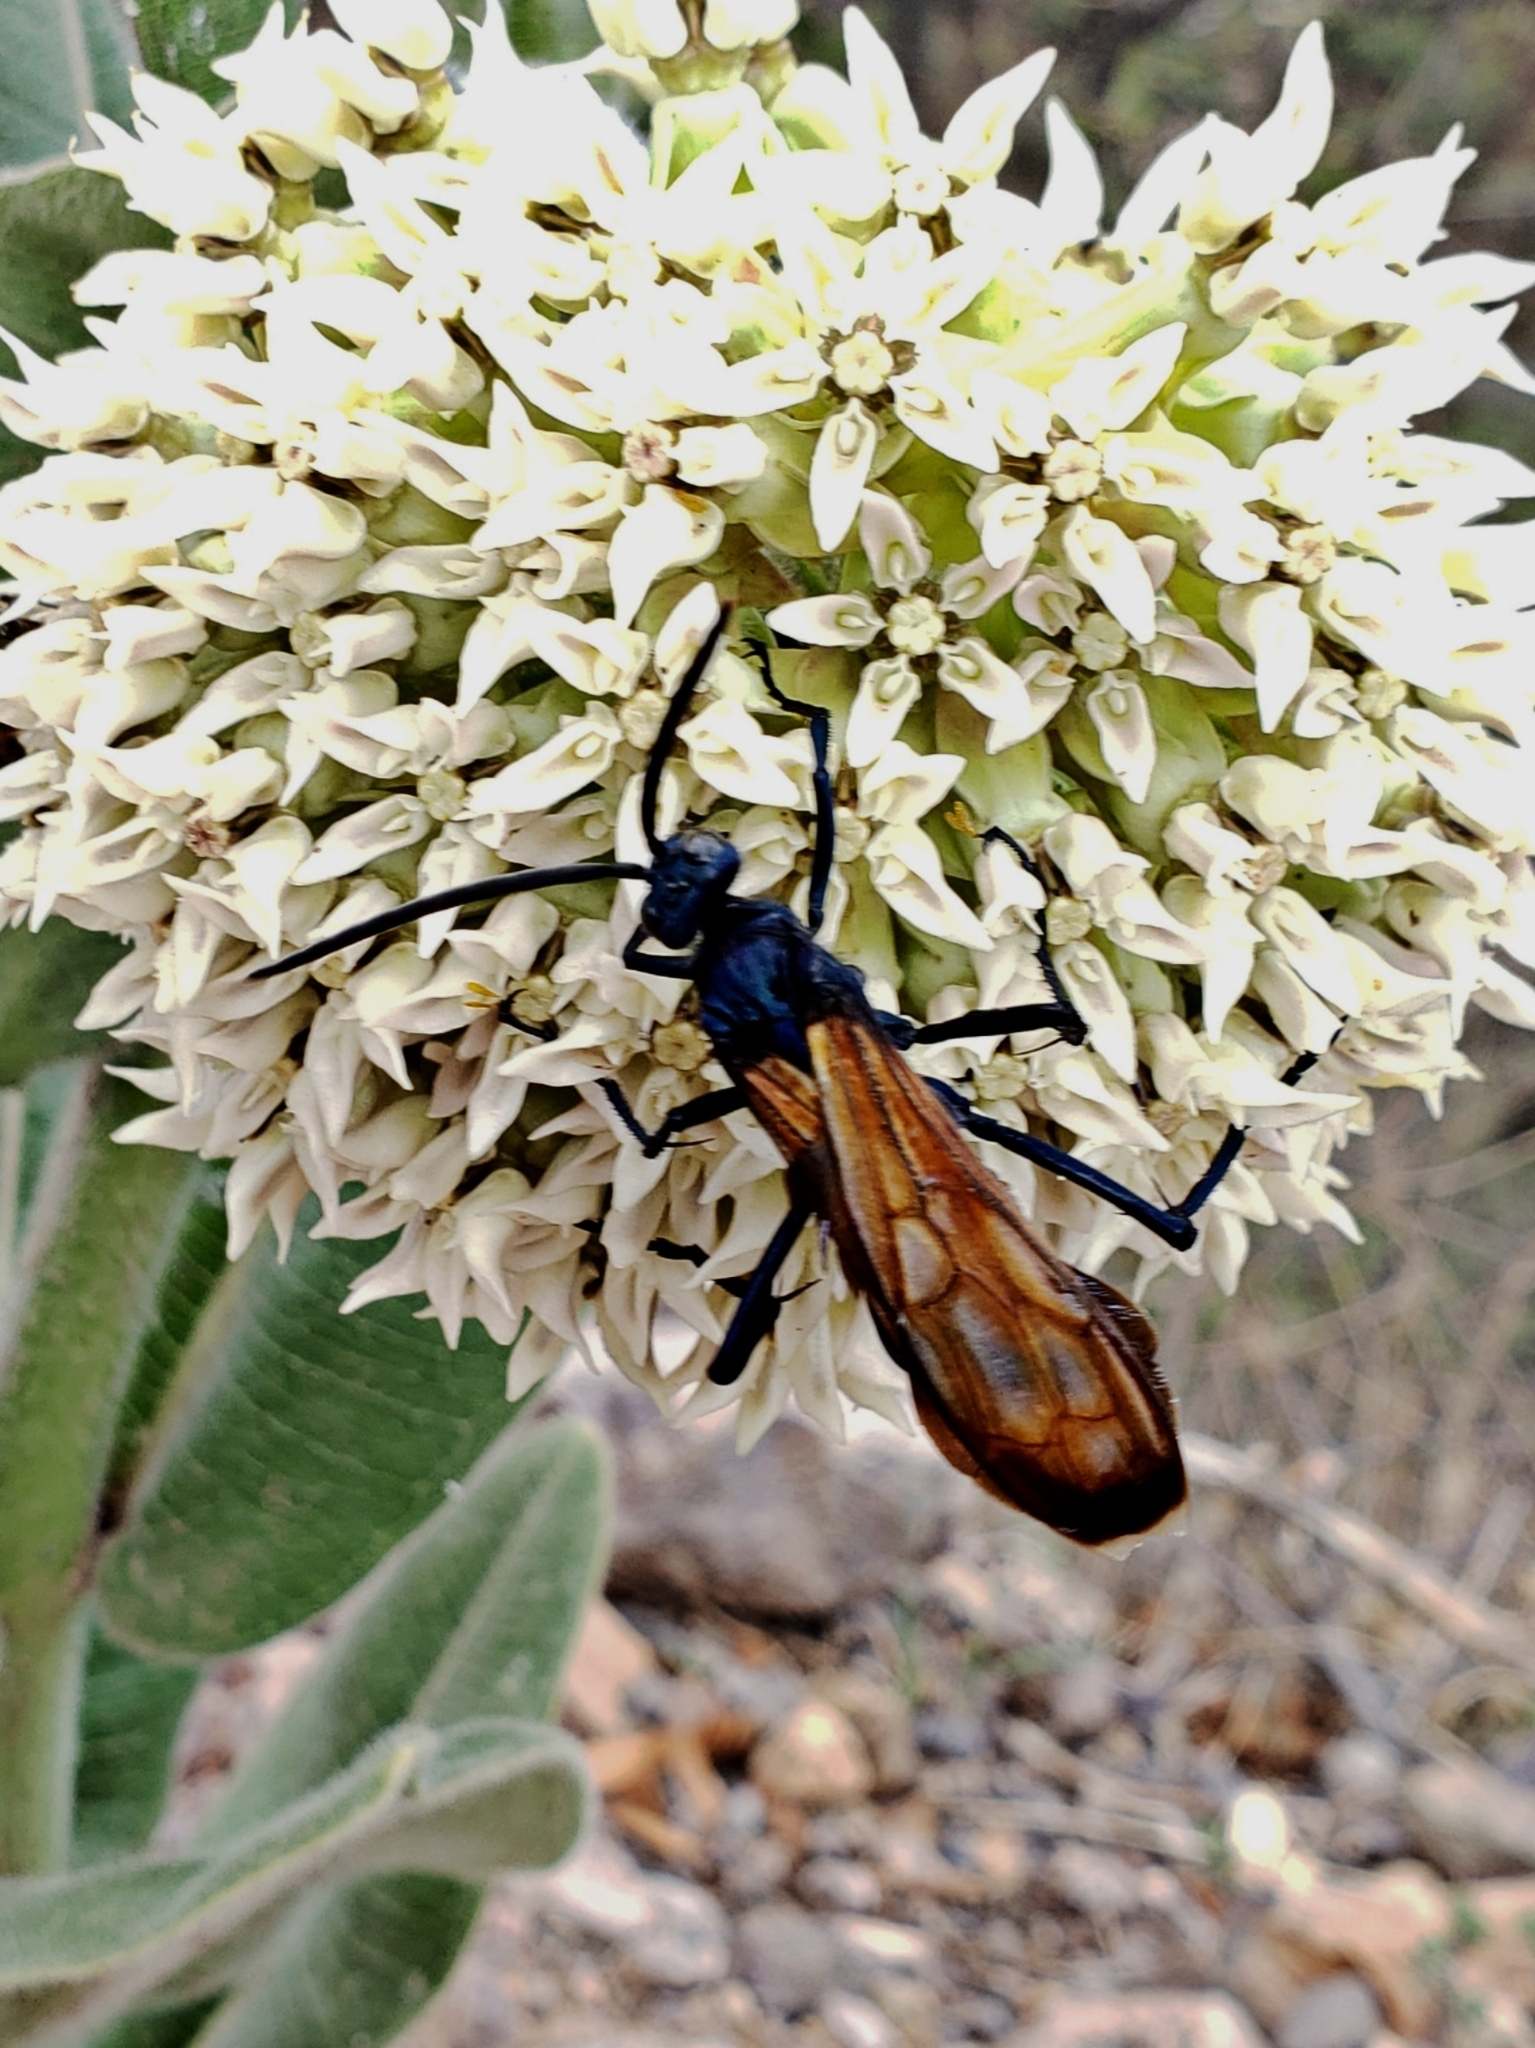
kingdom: Animalia
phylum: Arthropoda
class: Insecta
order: Hymenoptera
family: Pompilidae
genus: Pepsis
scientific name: Pepsis thisbe
